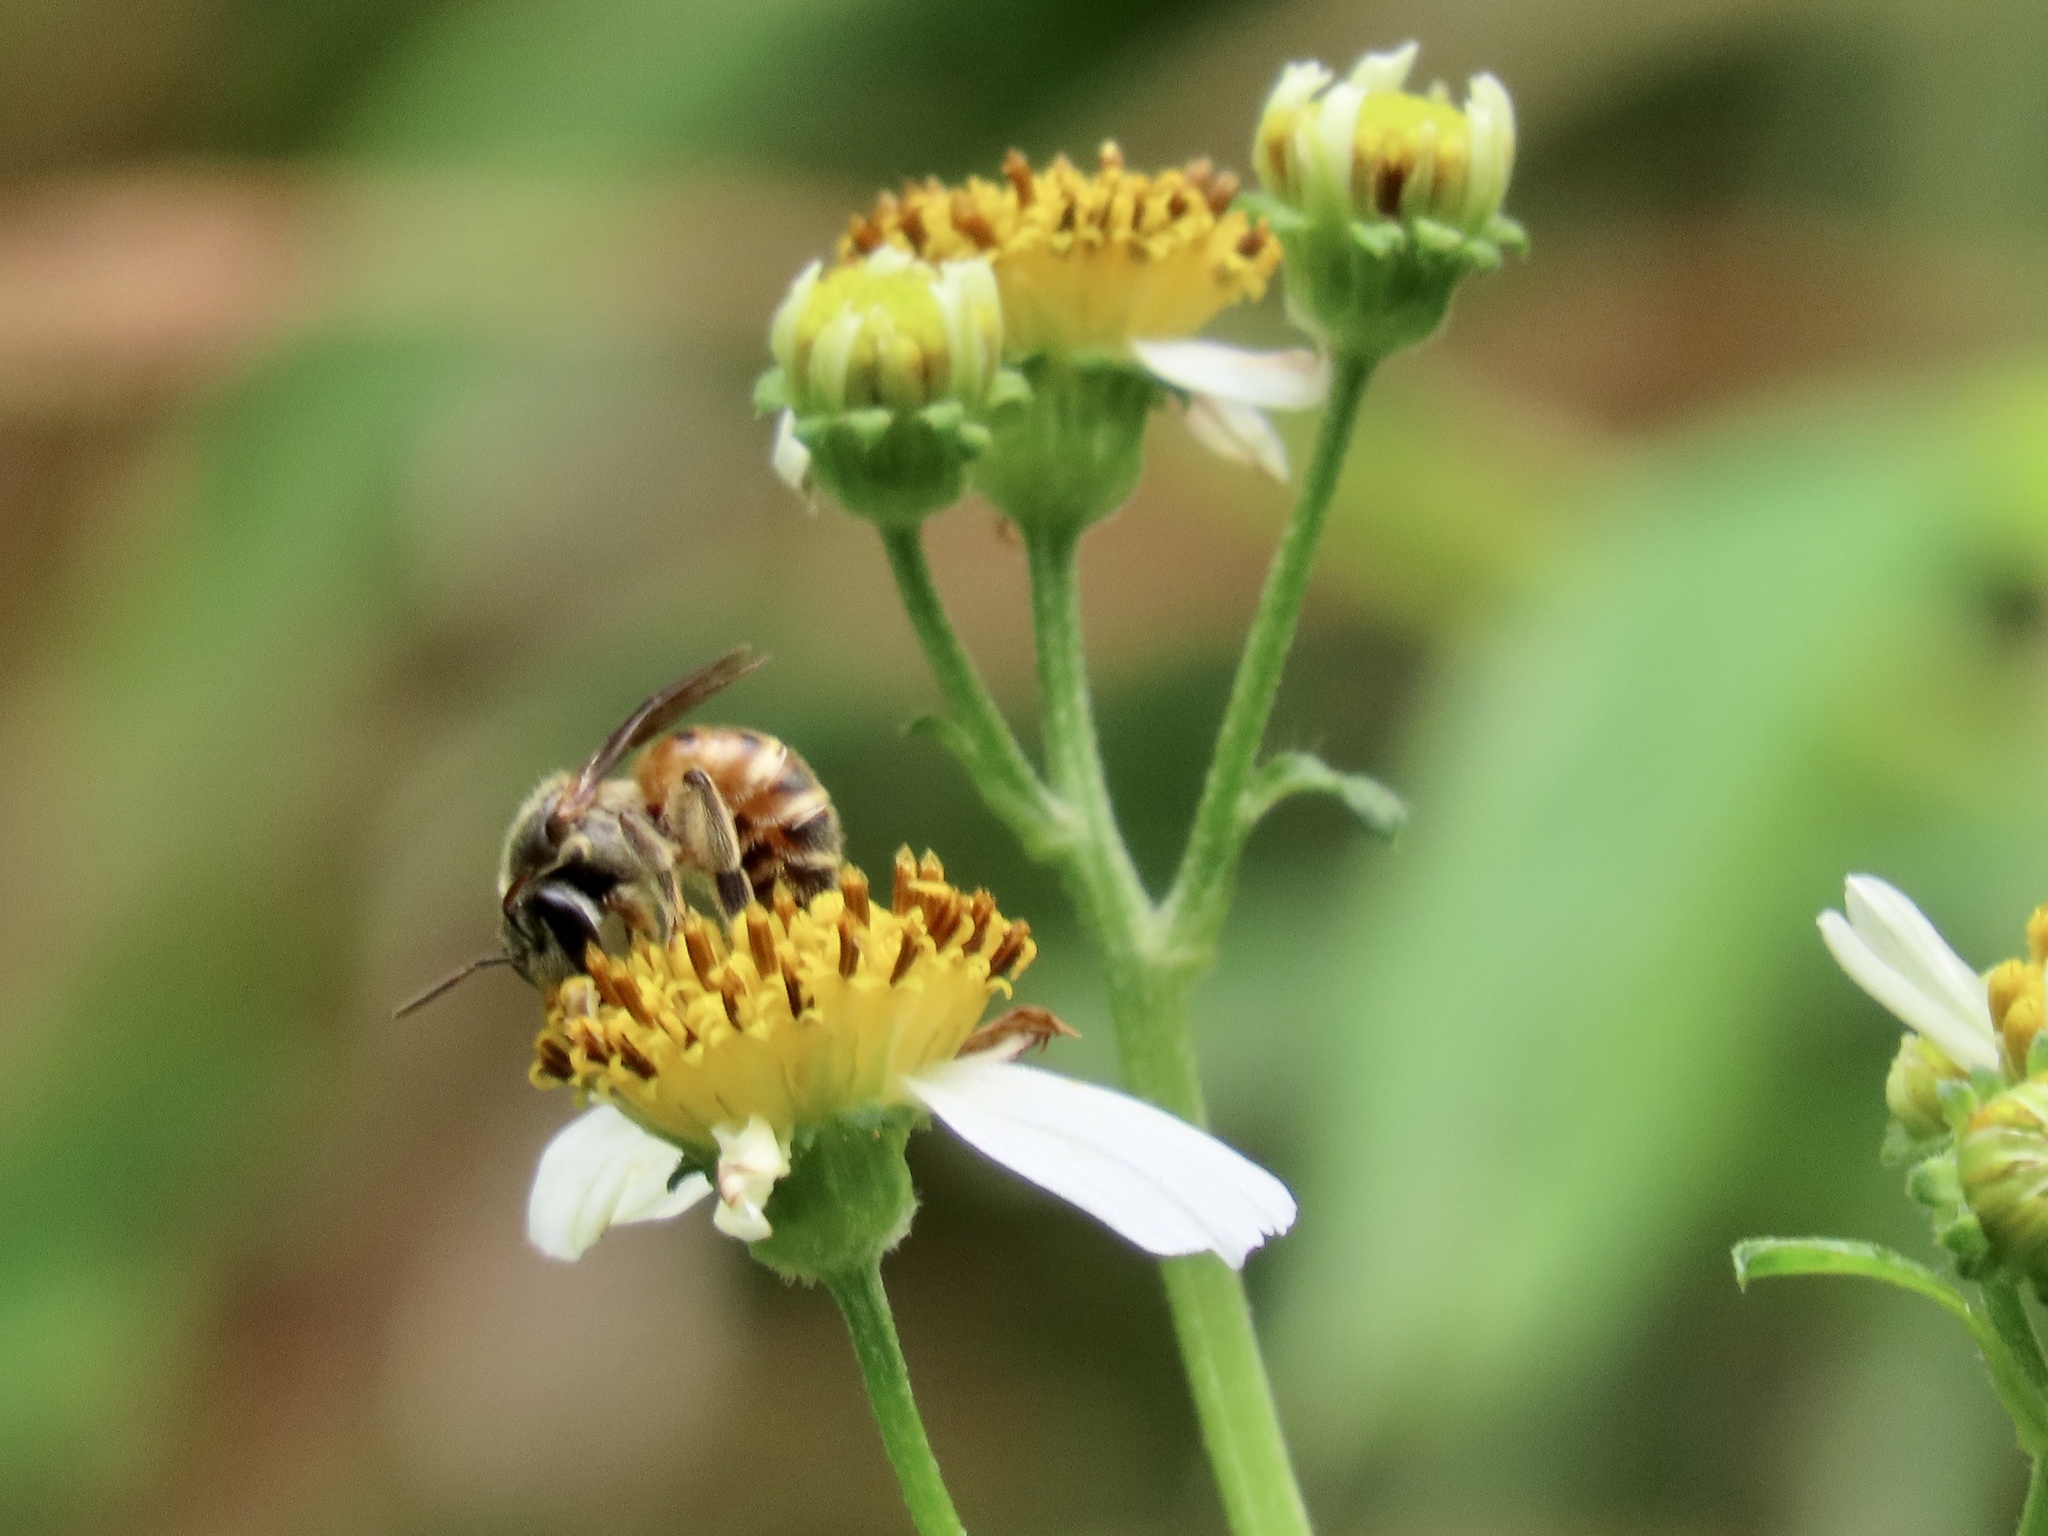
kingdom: Animalia
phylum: Arthropoda
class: Insecta
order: Hymenoptera
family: Halictidae
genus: Nomia
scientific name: Nomia penangensis
